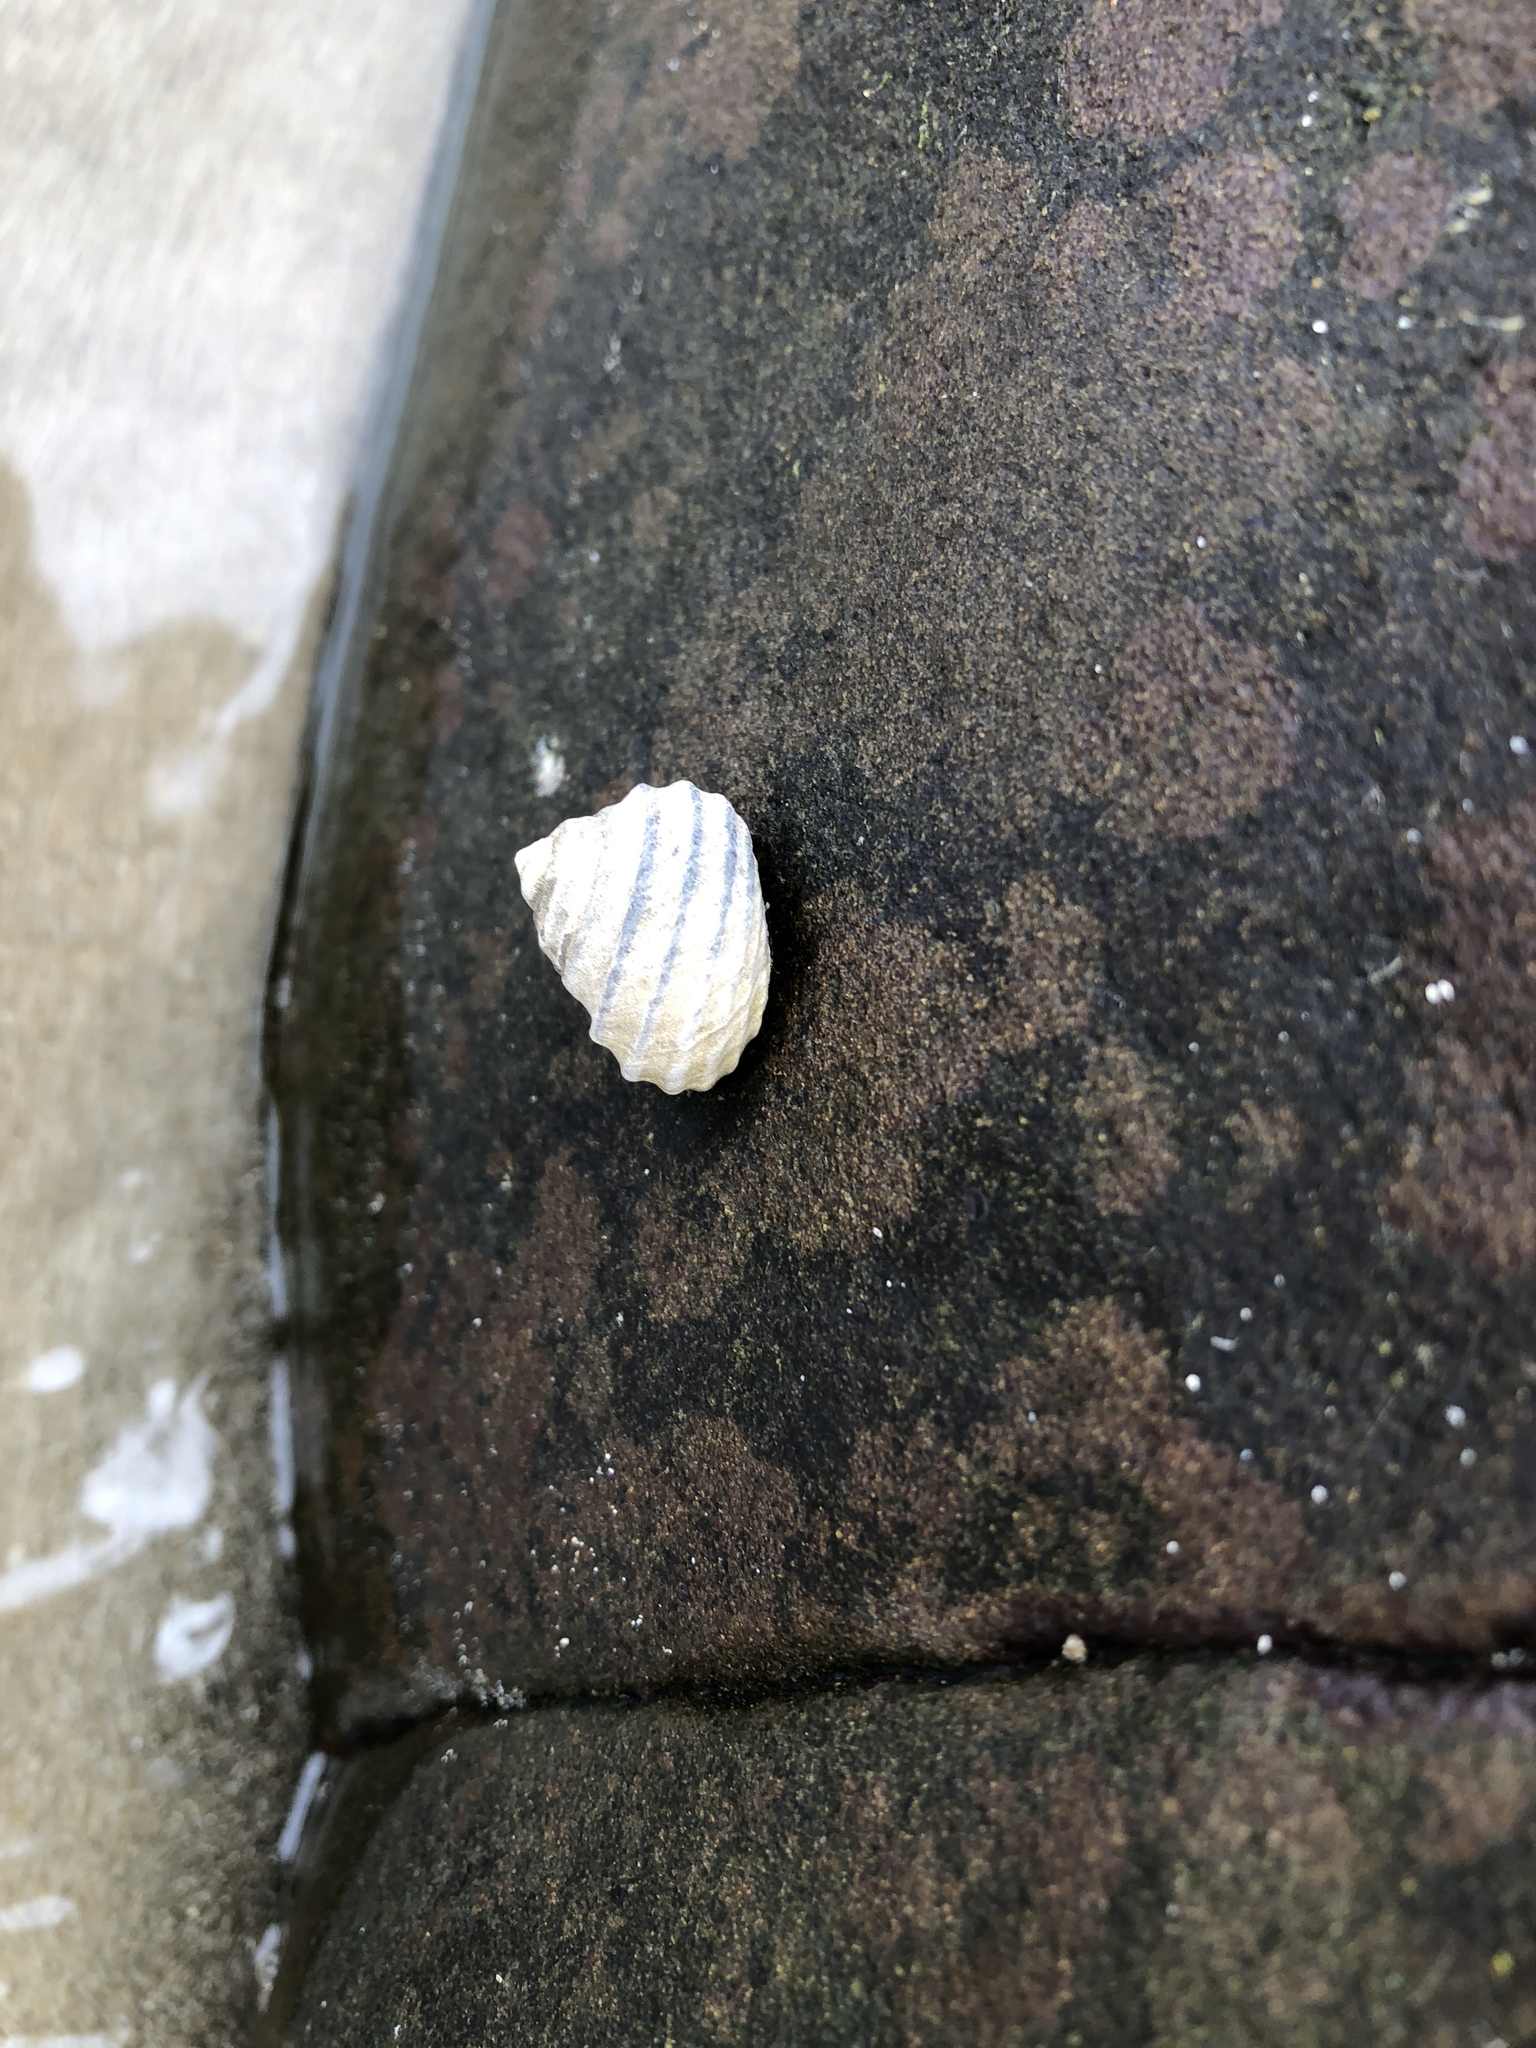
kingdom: Animalia
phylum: Mollusca
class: Gastropoda
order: Trochida
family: Trochidae
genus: Austrocochlea
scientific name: Austrocochlea constricta
